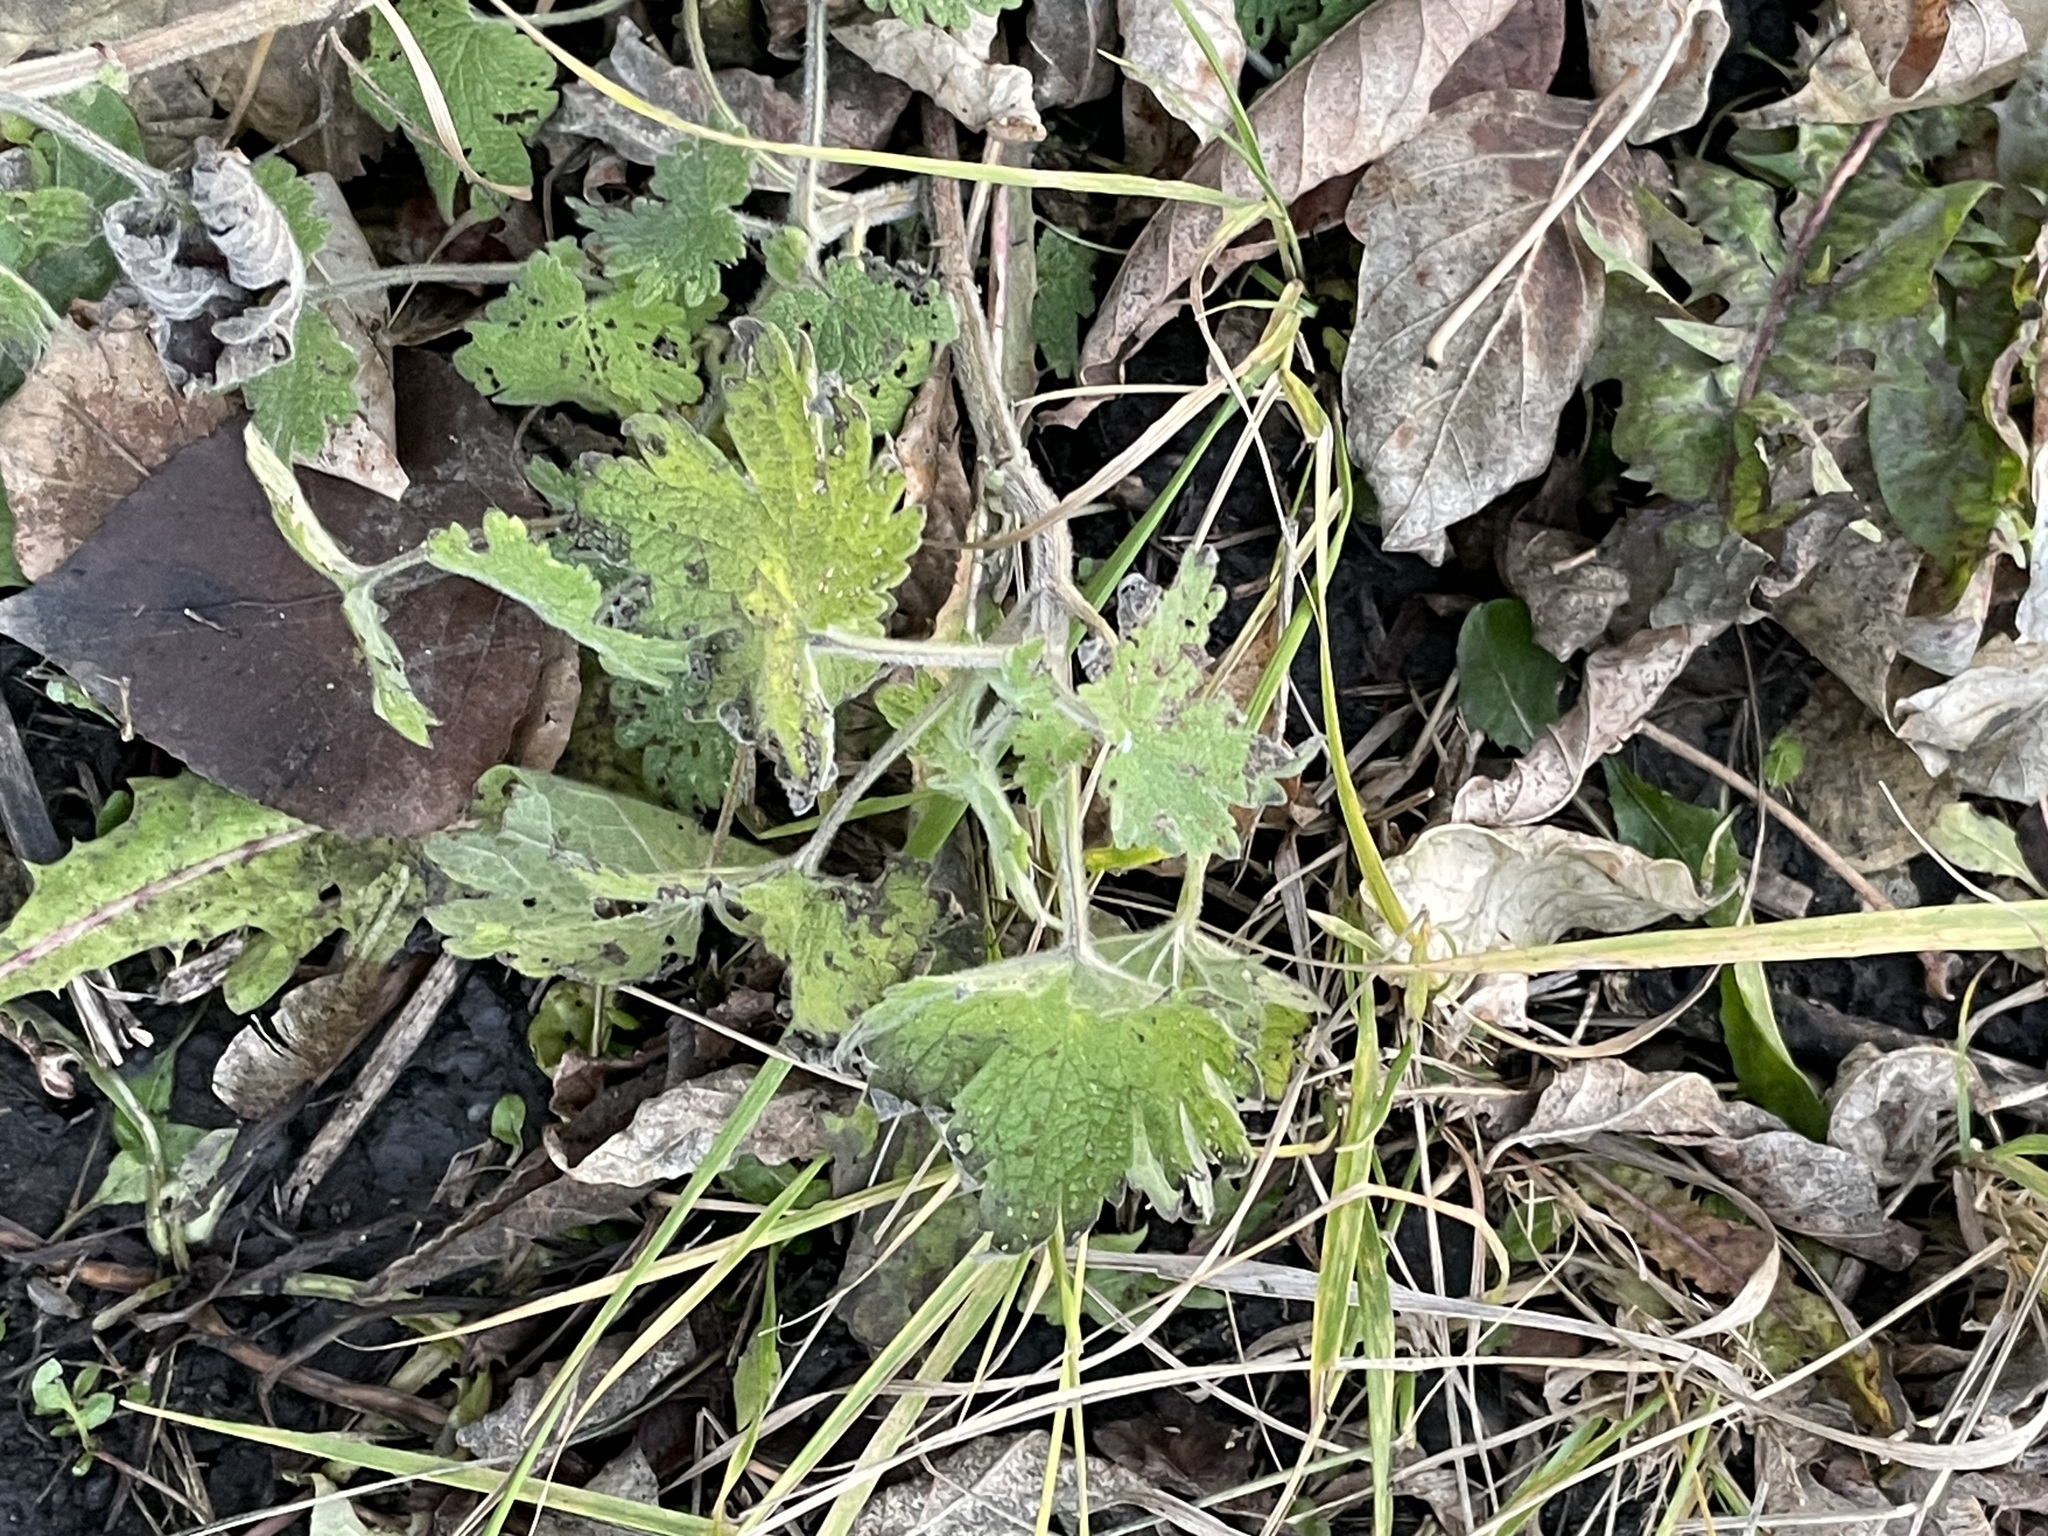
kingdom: Plantae
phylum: Tracheophyta
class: Magnoliopsida
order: Lamiales
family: Lamiaceae
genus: Leonurus
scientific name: Leonurus quinquelobatus
